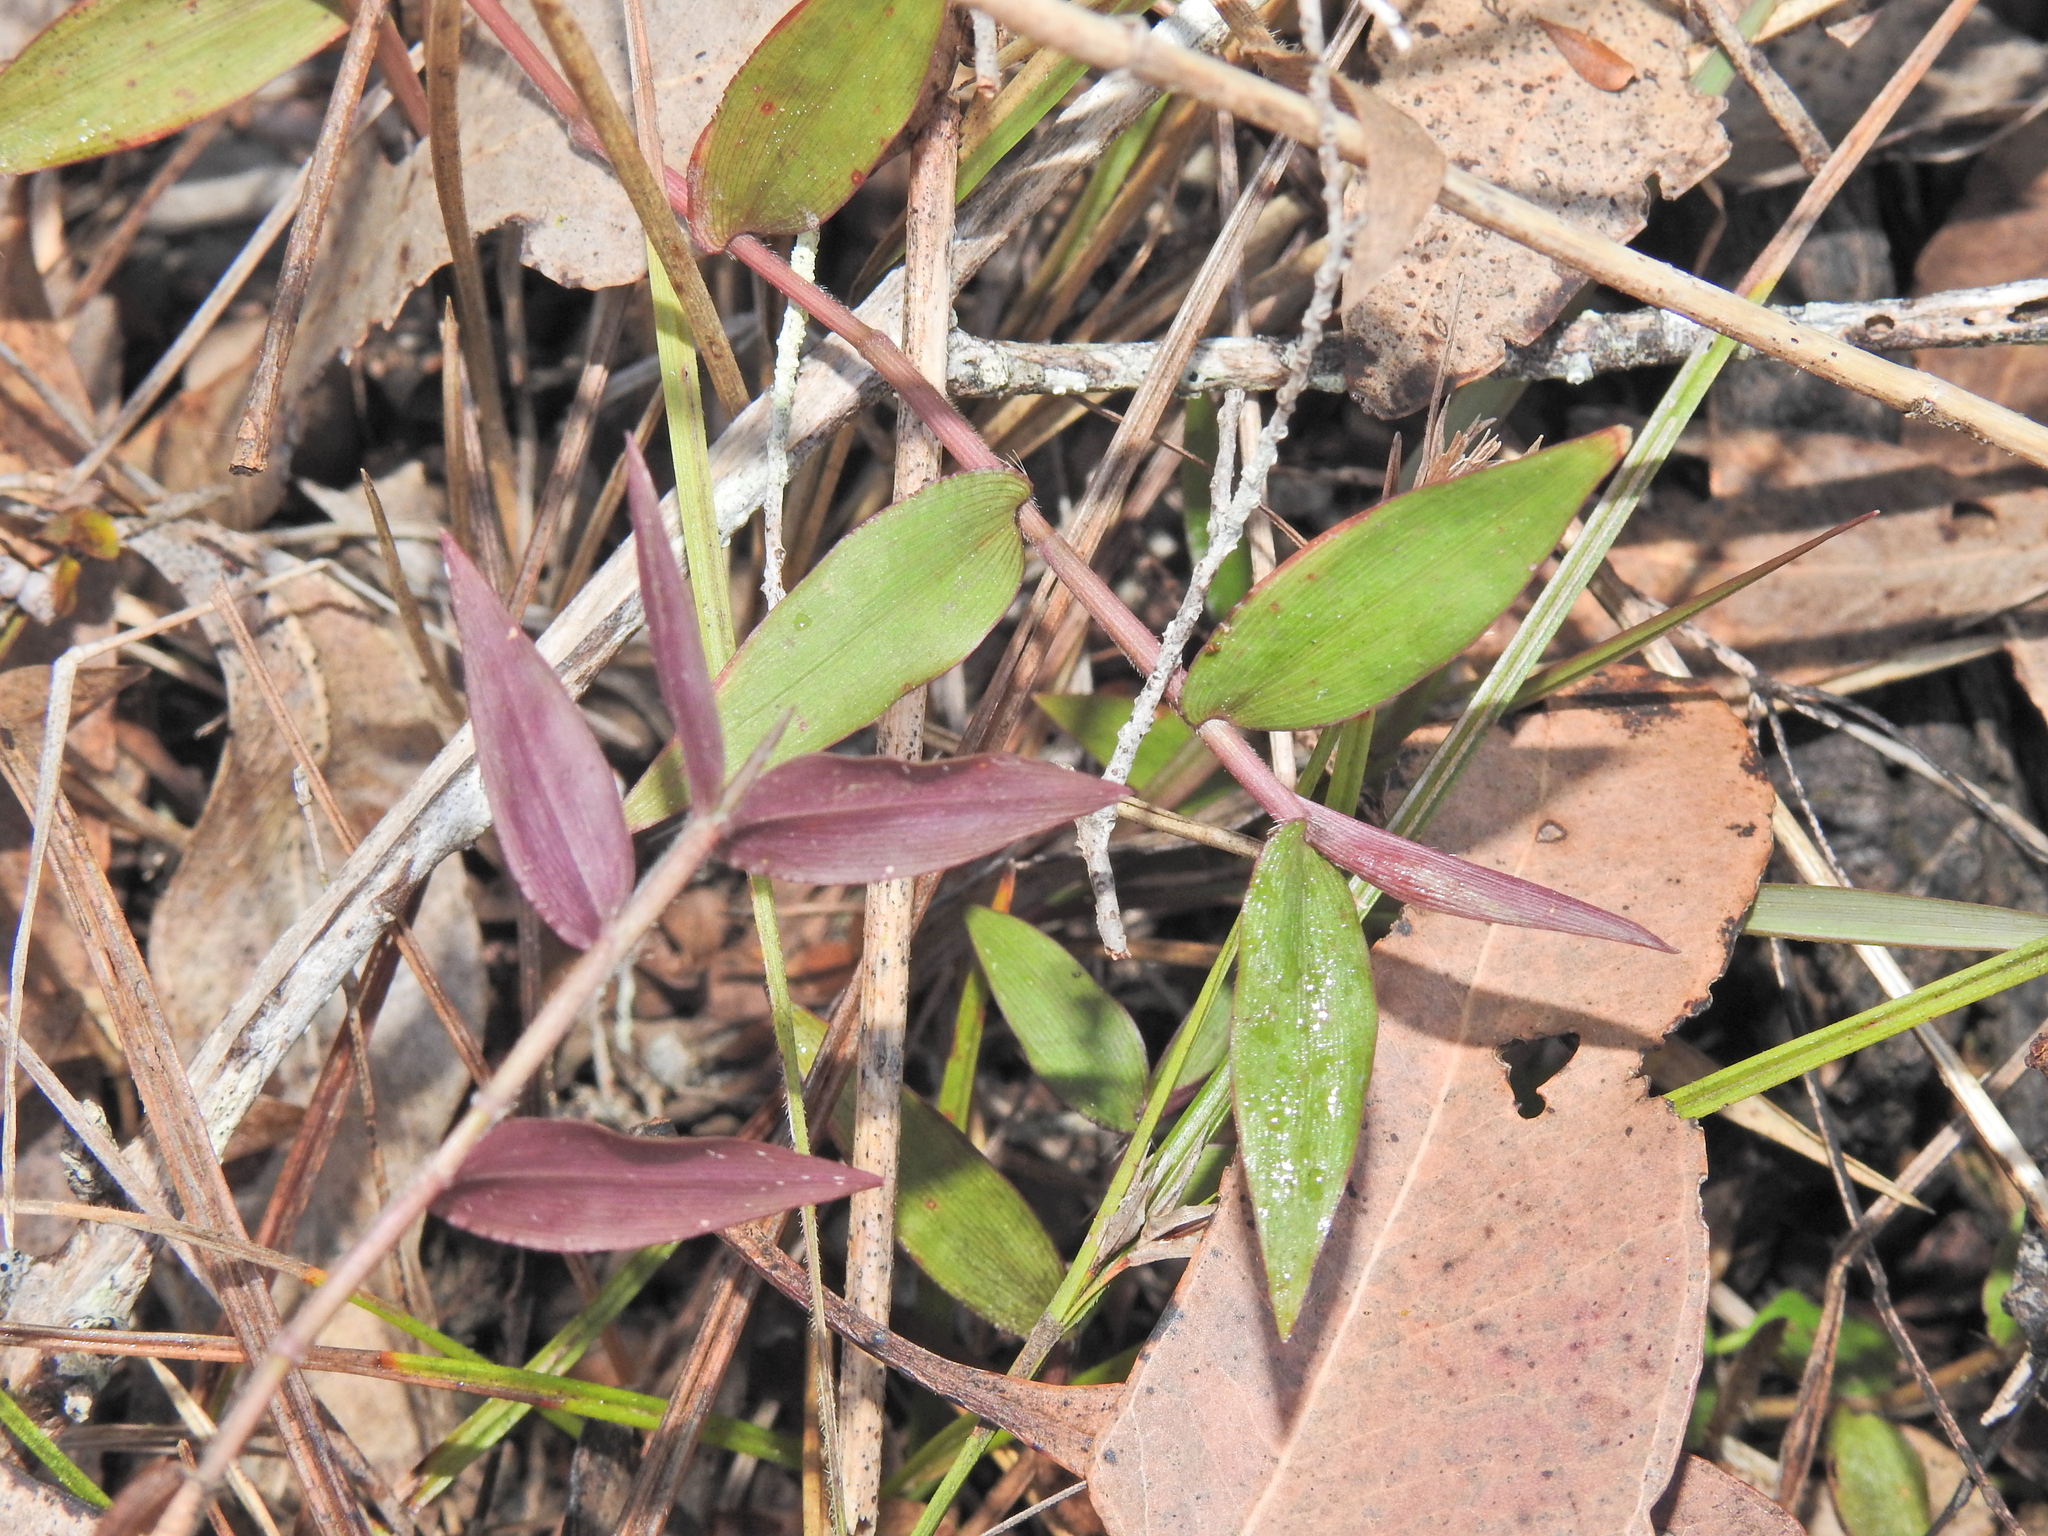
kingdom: Plantae
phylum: Tracheophyta
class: Liliopsida
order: Poales
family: Poaceae
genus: Oplismenus
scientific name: Oplismenus hirtellus
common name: Basketgrass
